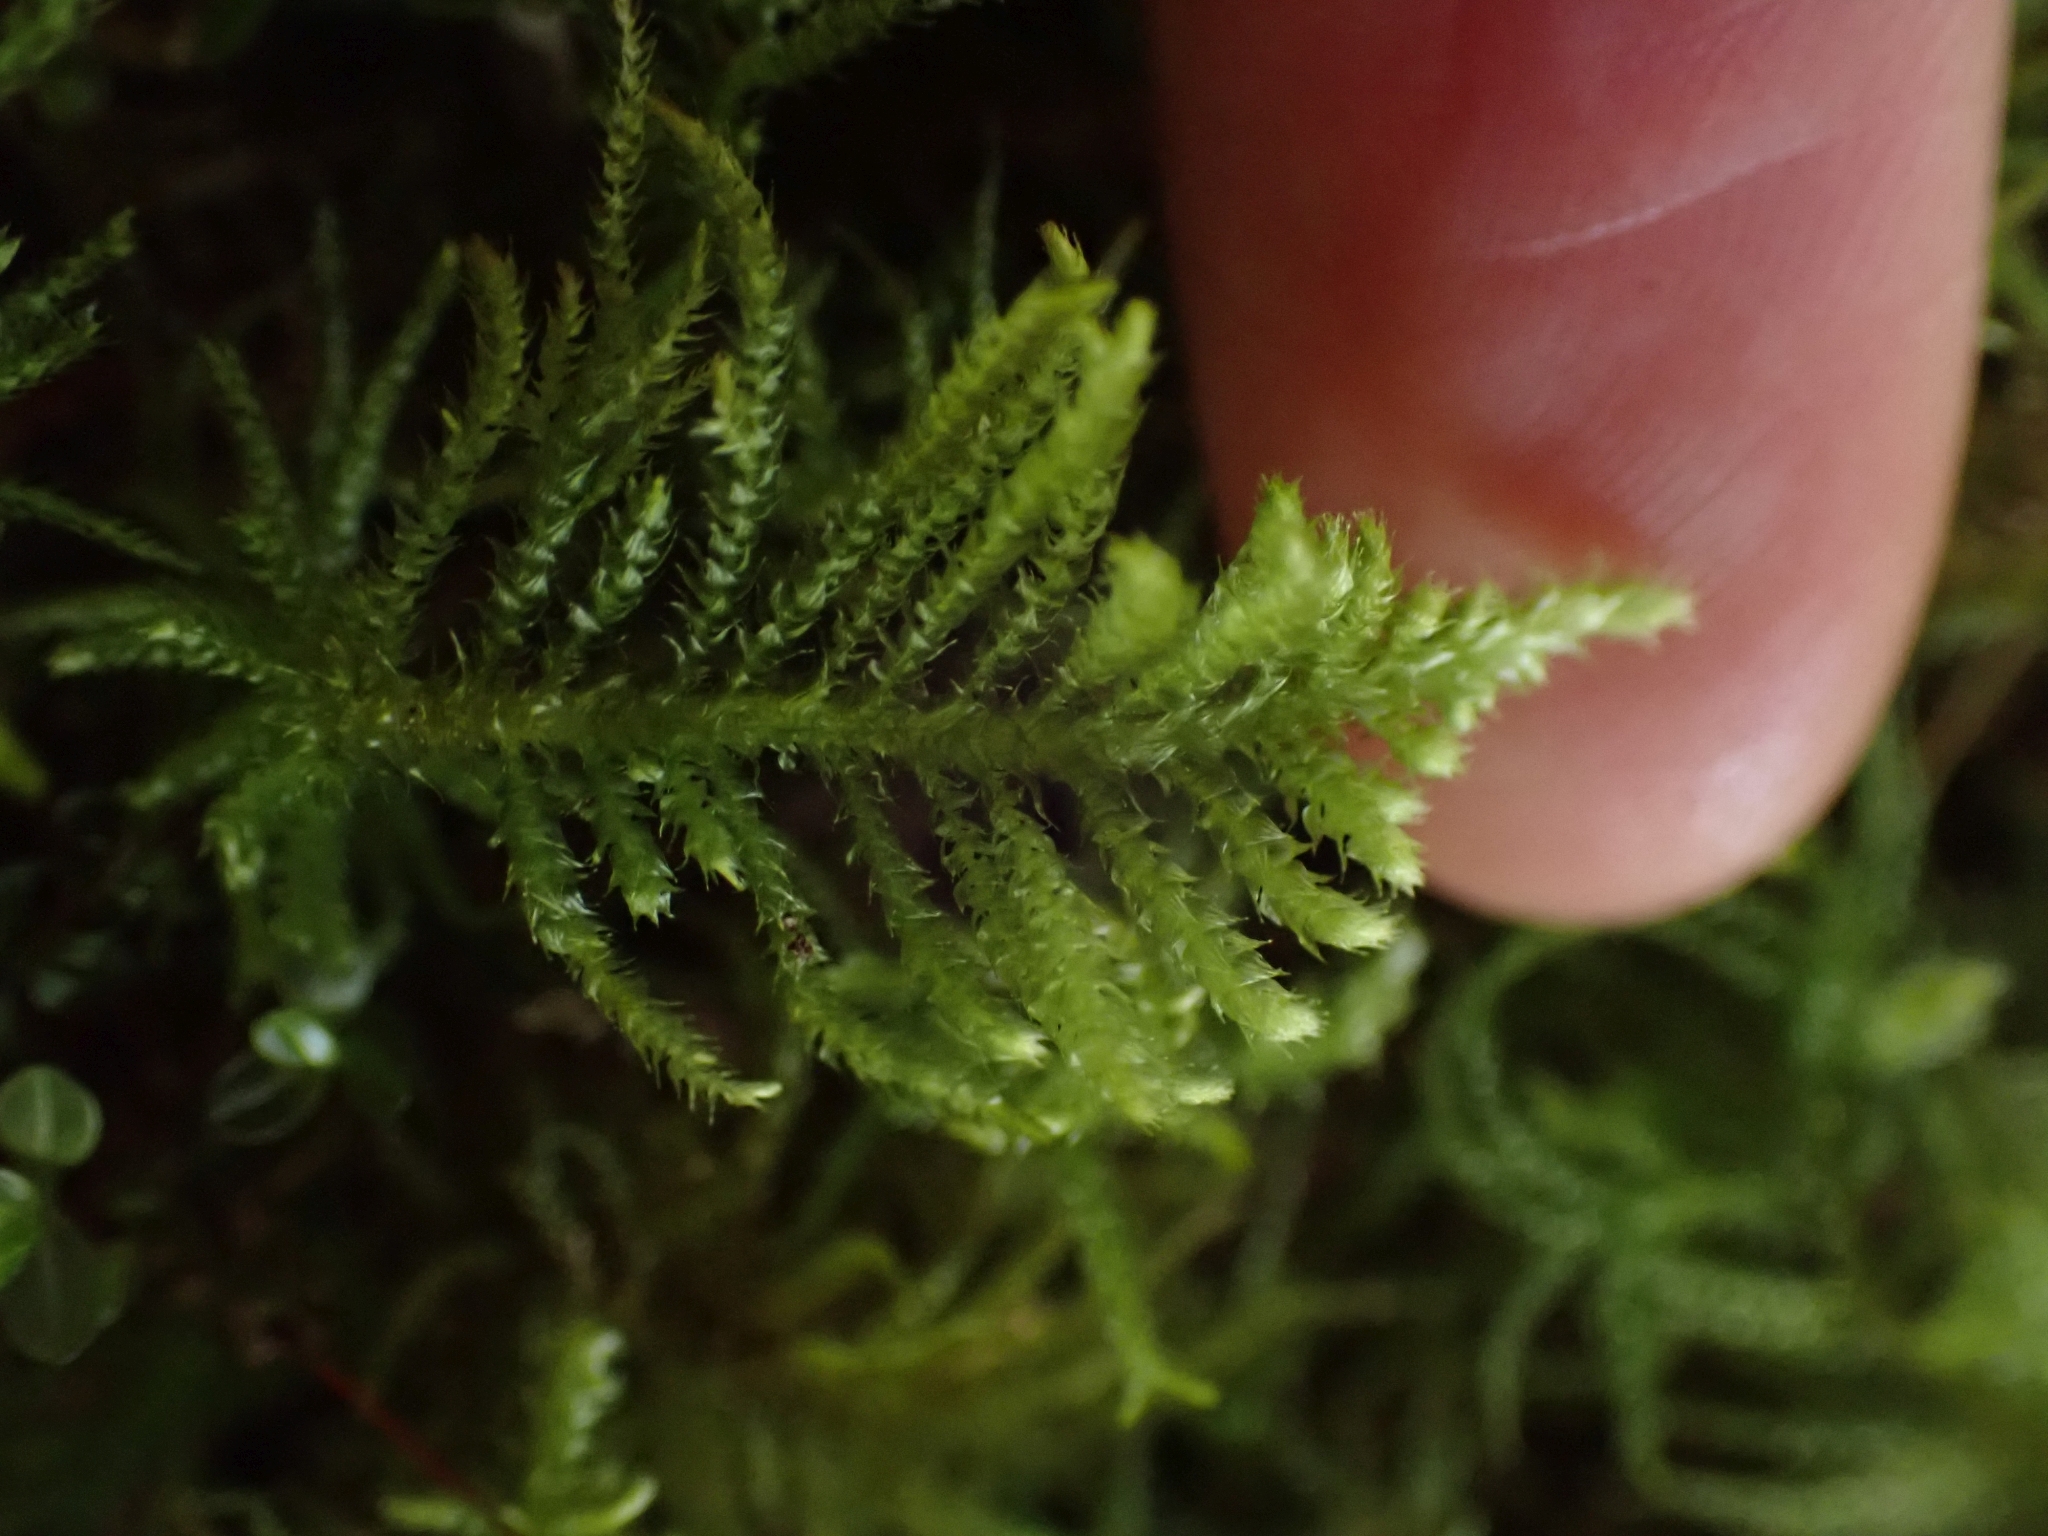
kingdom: Plantae
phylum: Bryophyta
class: Bryopsida
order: Hypnales
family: Brachytheciaceae
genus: Kindbergia
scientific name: Kindbergia oregana
